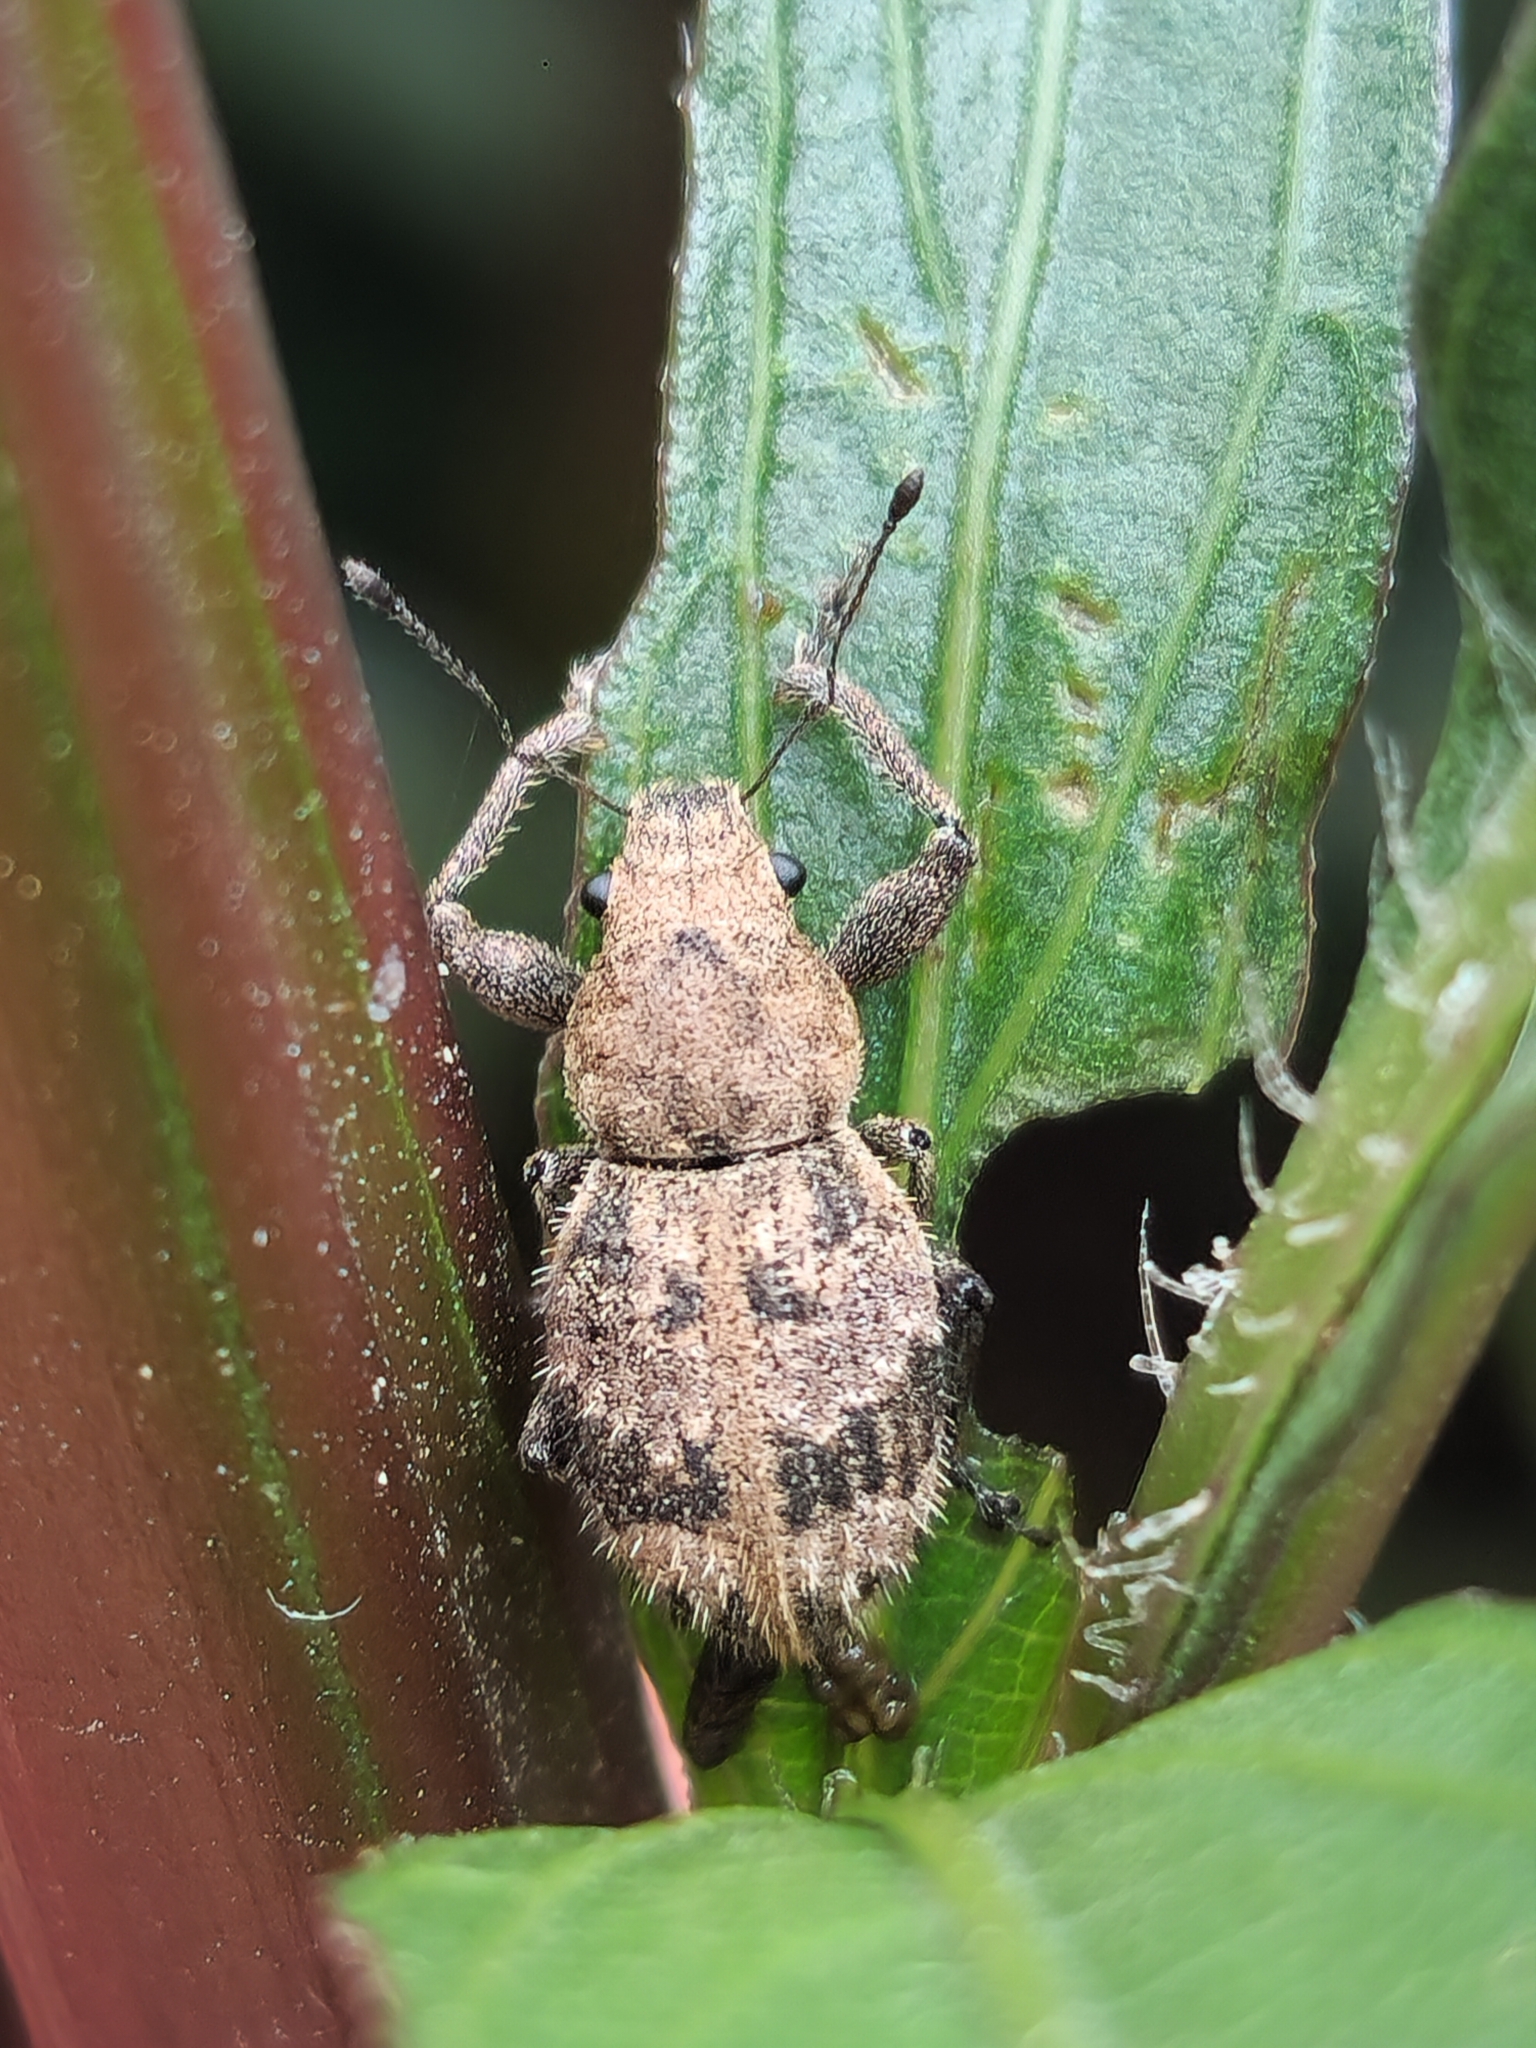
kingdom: Animalia
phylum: Arthropoda
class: Insecta
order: Coleoptera
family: Curculionidae
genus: Pantomorus
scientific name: Pantomorus
